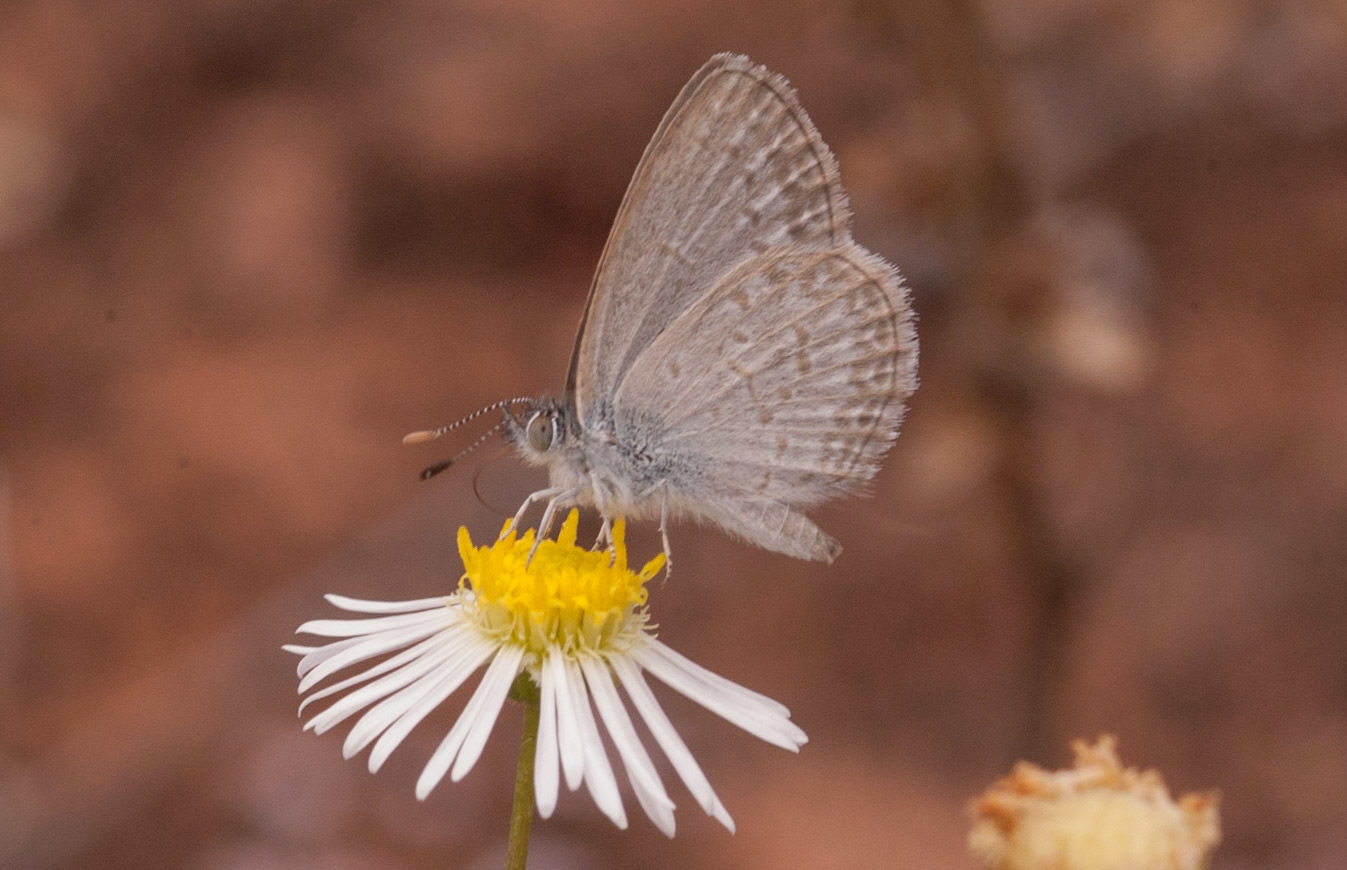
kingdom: Animalia
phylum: Arthropoda
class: Insecta
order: Lepidoptera
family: Lycaenidae
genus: Zizina
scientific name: Zizina labradus
